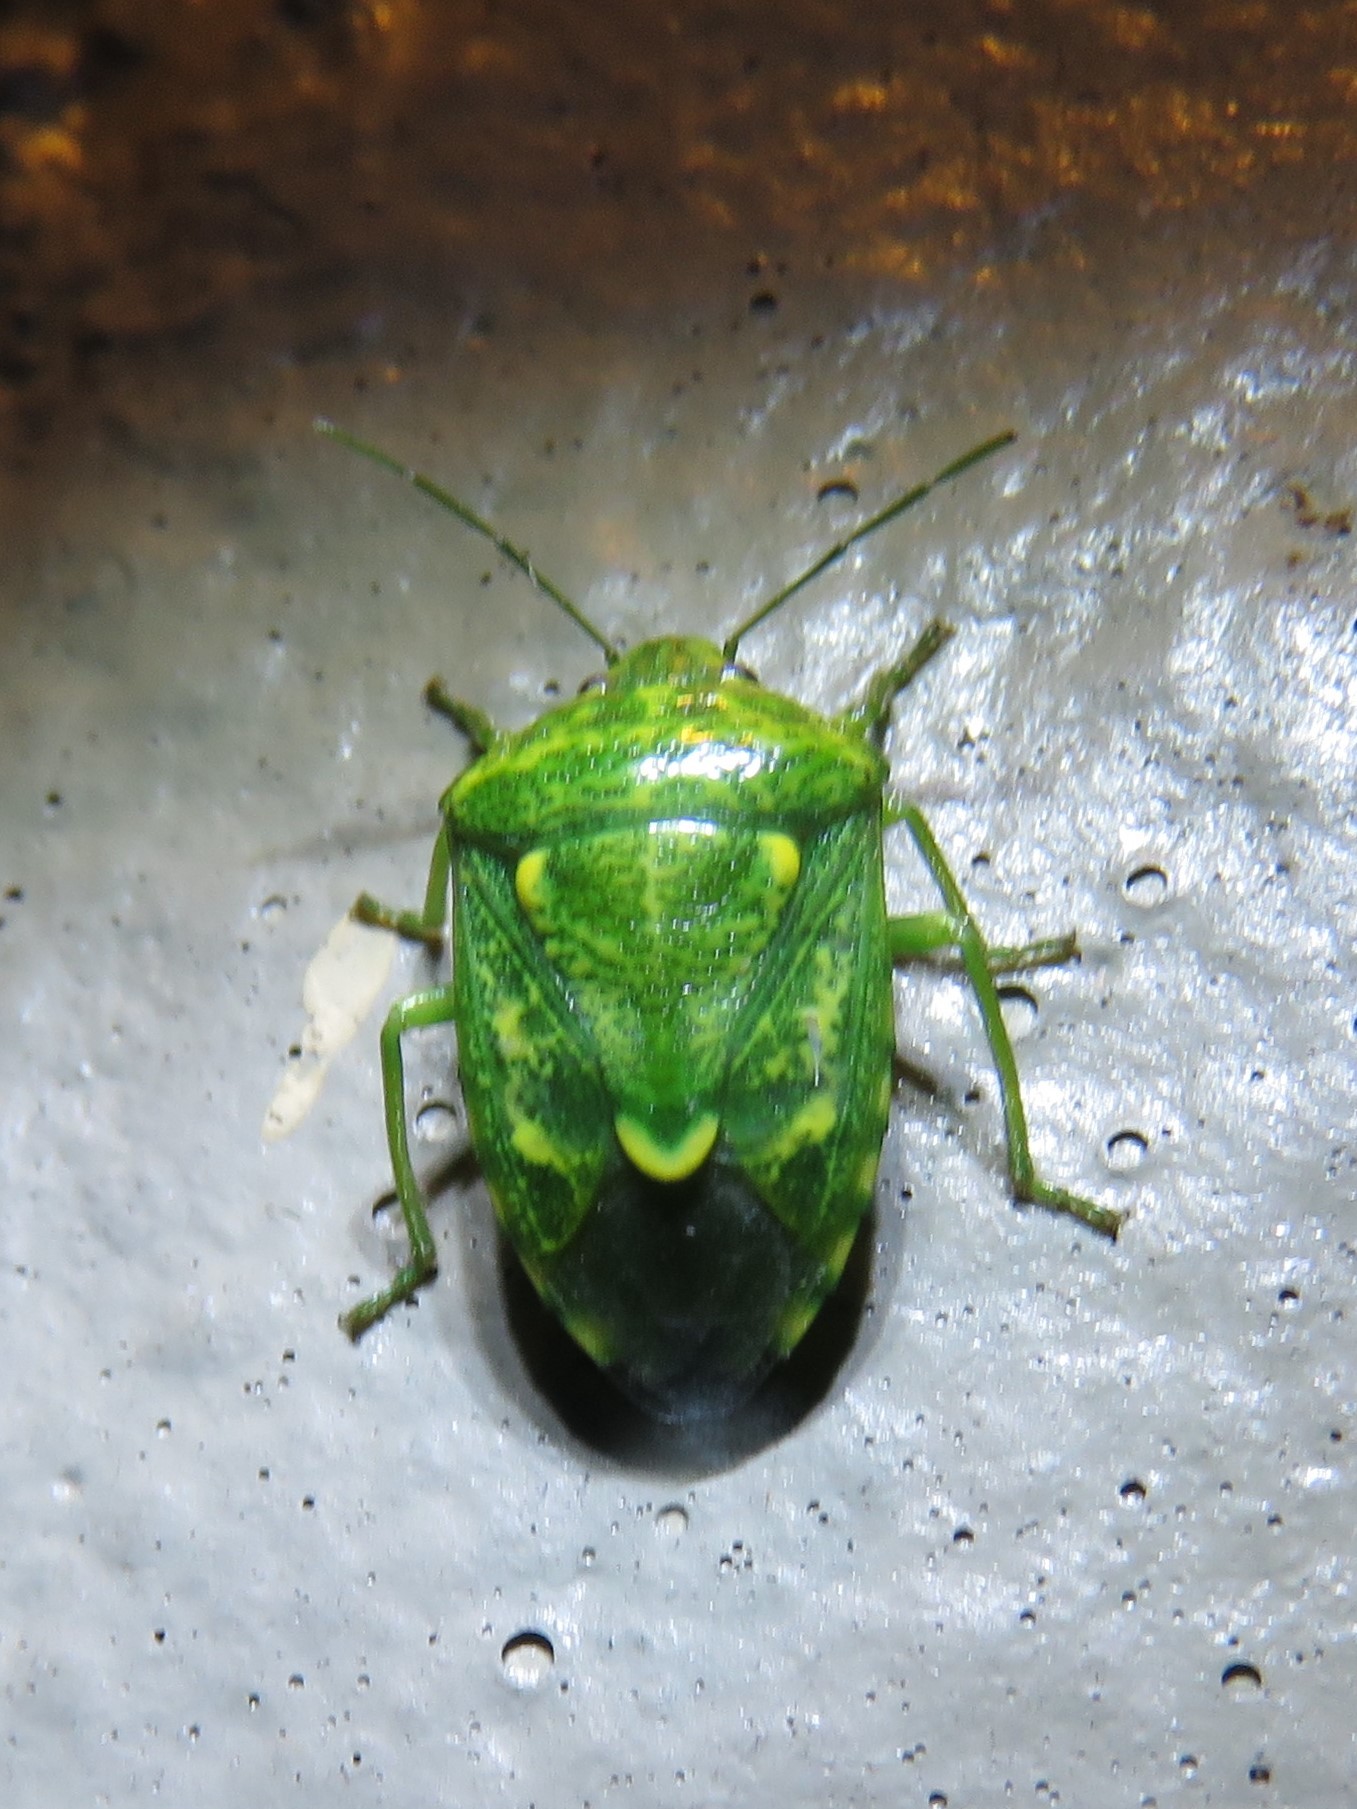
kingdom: Animalia
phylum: Arthropoda
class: Insecta
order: Hemiptera
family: Pentatomidae
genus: Banasa
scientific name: Banasa euchlora
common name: Cedar berry bug
